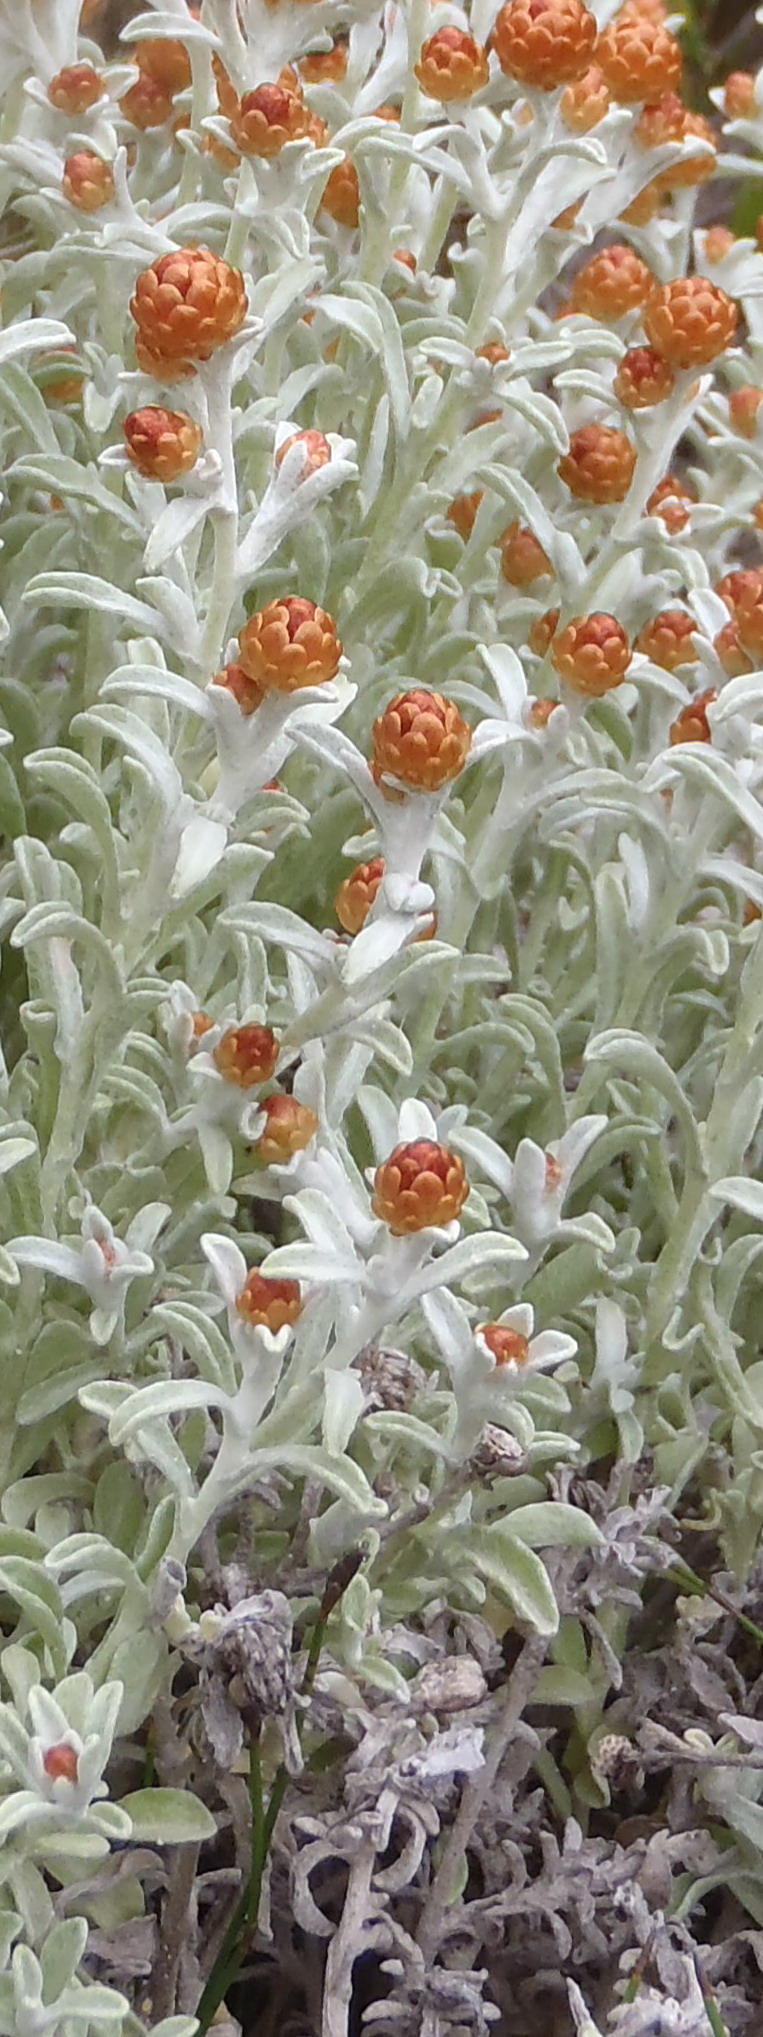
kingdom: Plantae
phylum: Tracheophyta
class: Magnoliopsida
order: Asterales
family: Asteraceae
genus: Helichrysum
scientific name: Helichrysum cochleariforme
